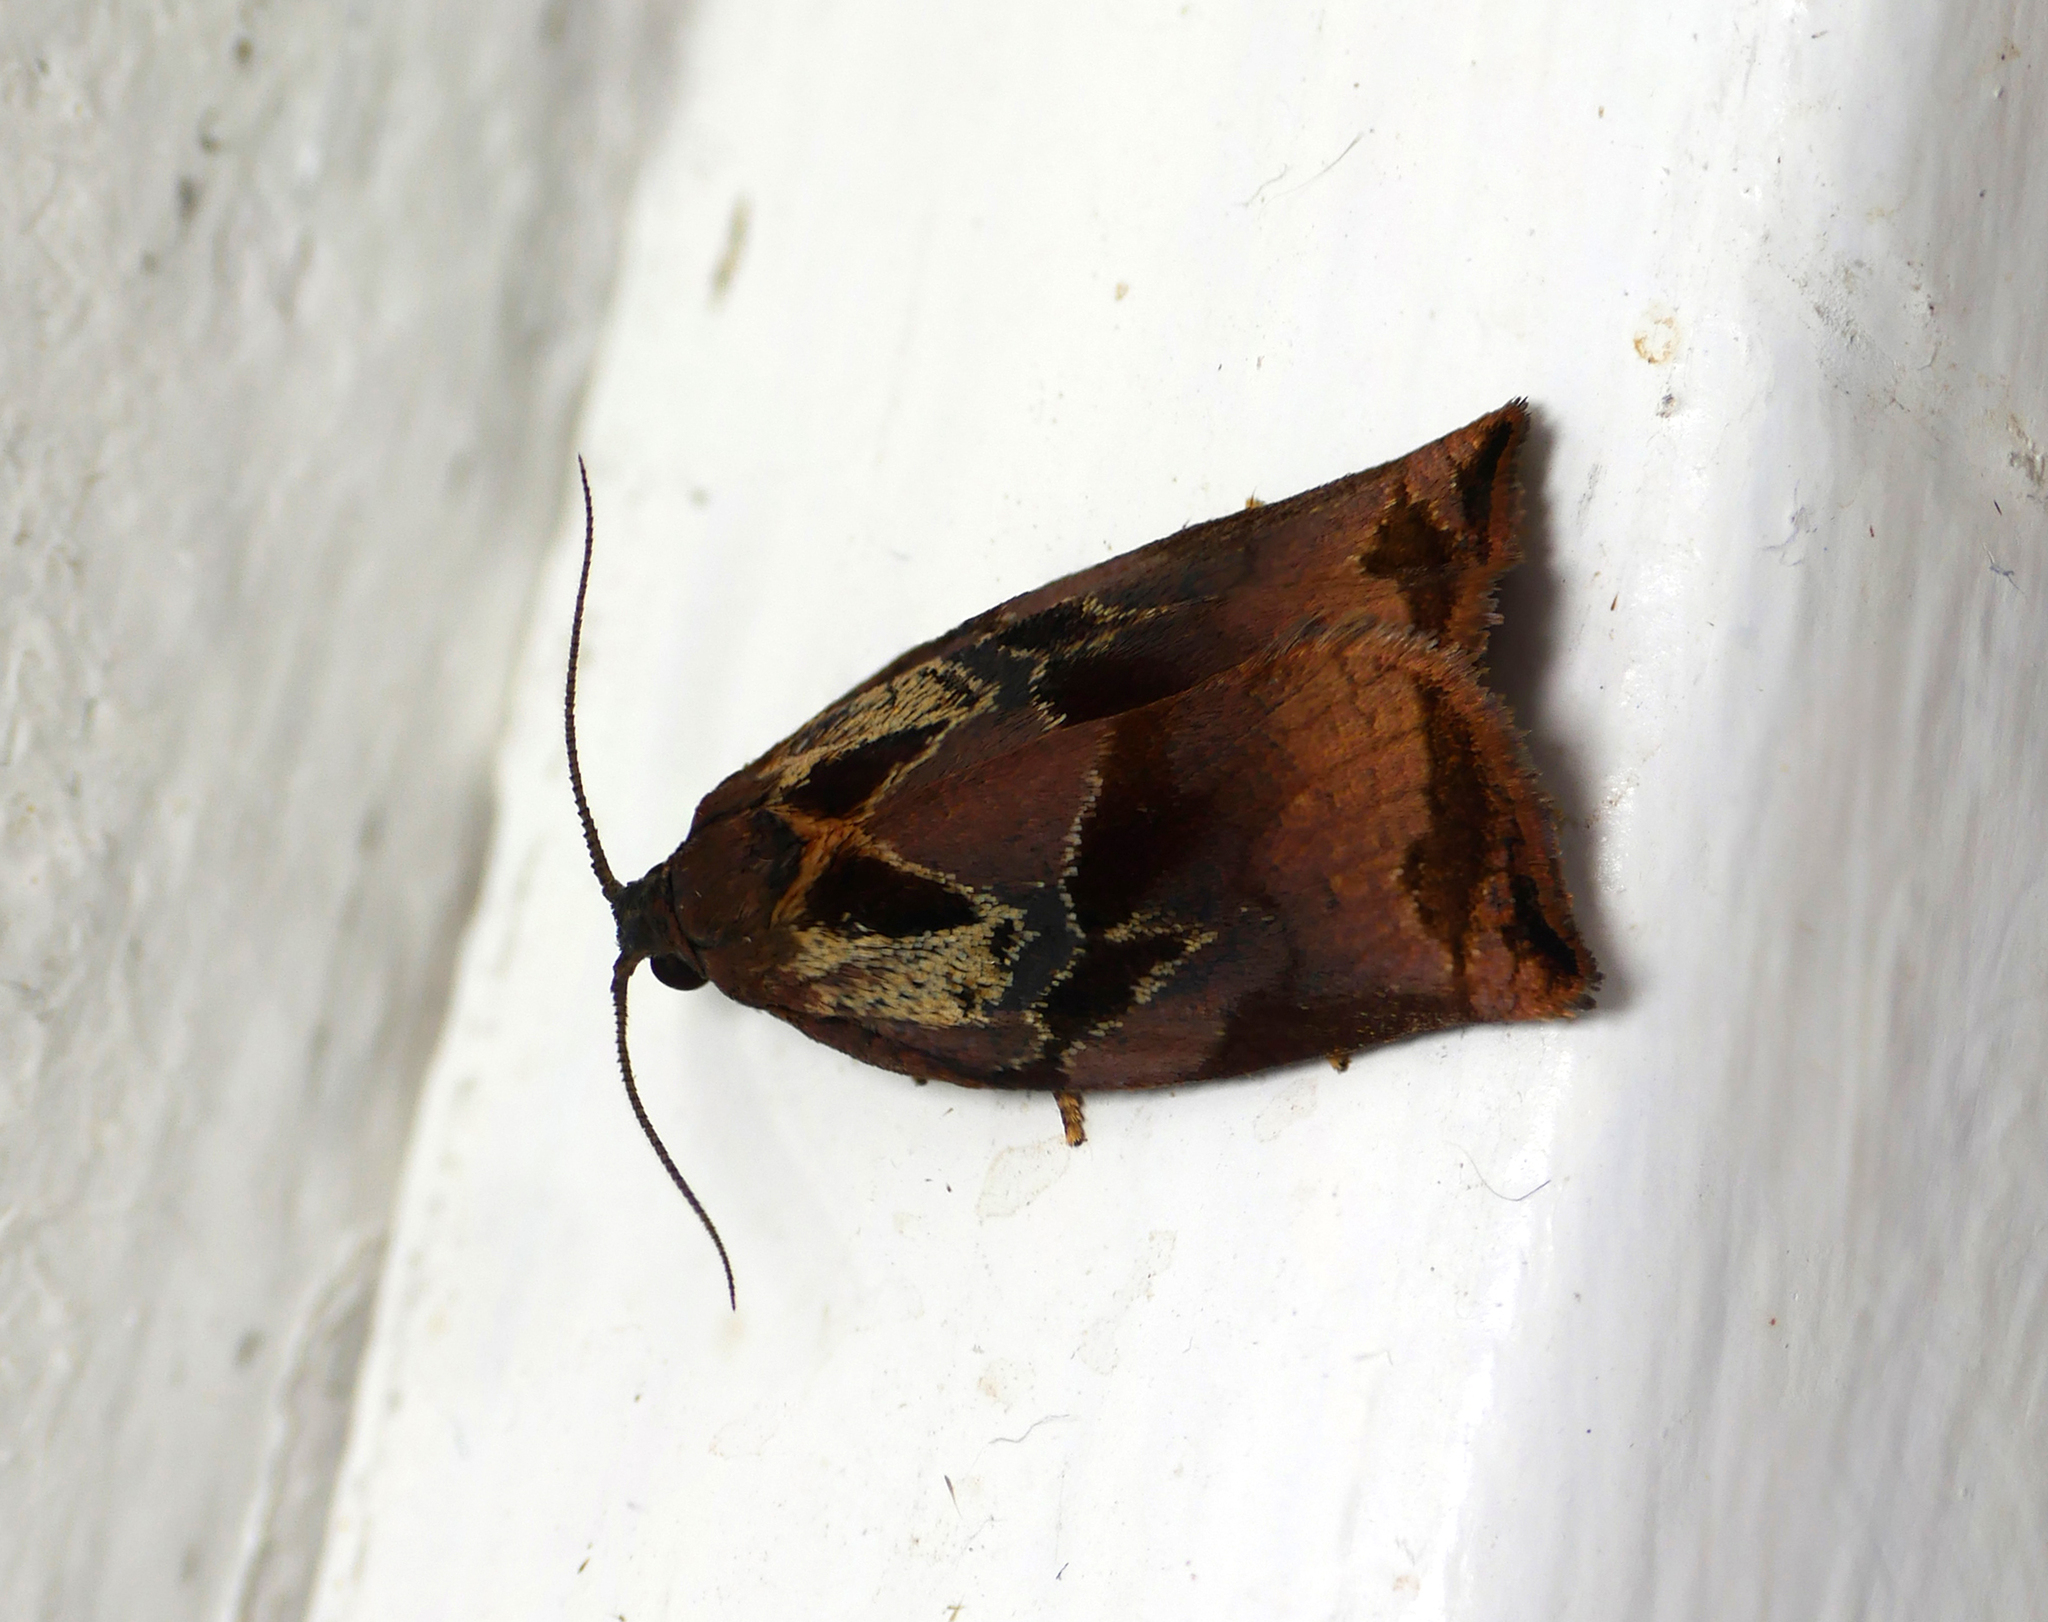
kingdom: Animalia
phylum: Arthropoda
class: Insecta
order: Lepidoptera
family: Tortricidae
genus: Archips
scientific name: Archips podana
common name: Large fruit-tree tortrix
